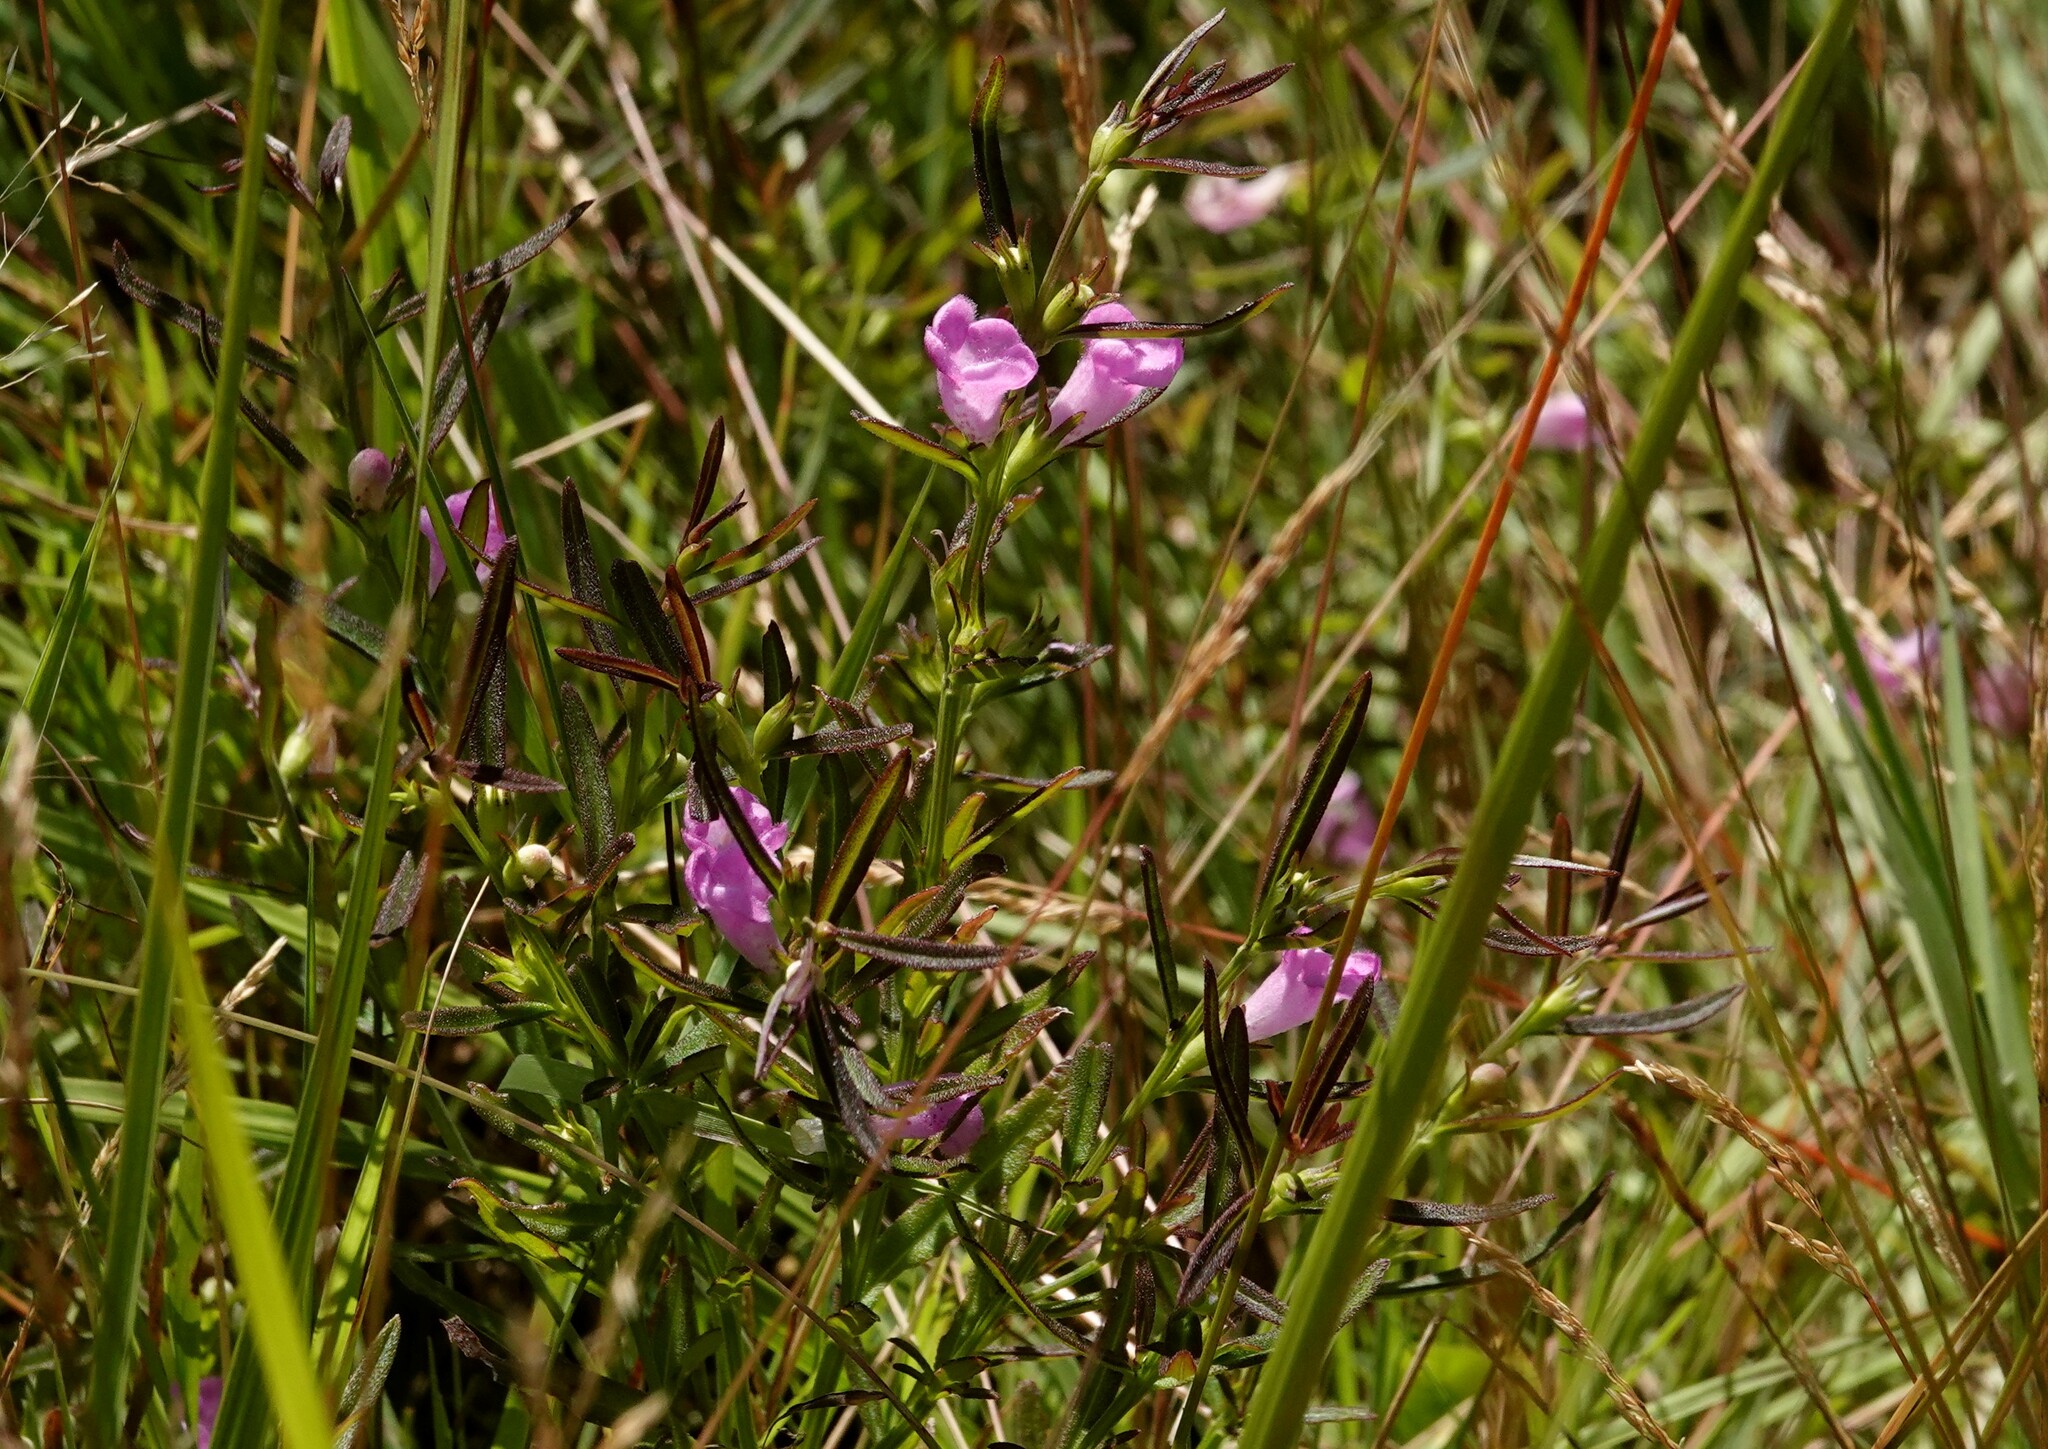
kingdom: Plantae
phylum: Tracheophyta
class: Magnoliopsida
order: Lamiales
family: Orobanchaceae
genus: Agalinis
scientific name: Agalinis neoscotica
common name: Middleton false foxglove
